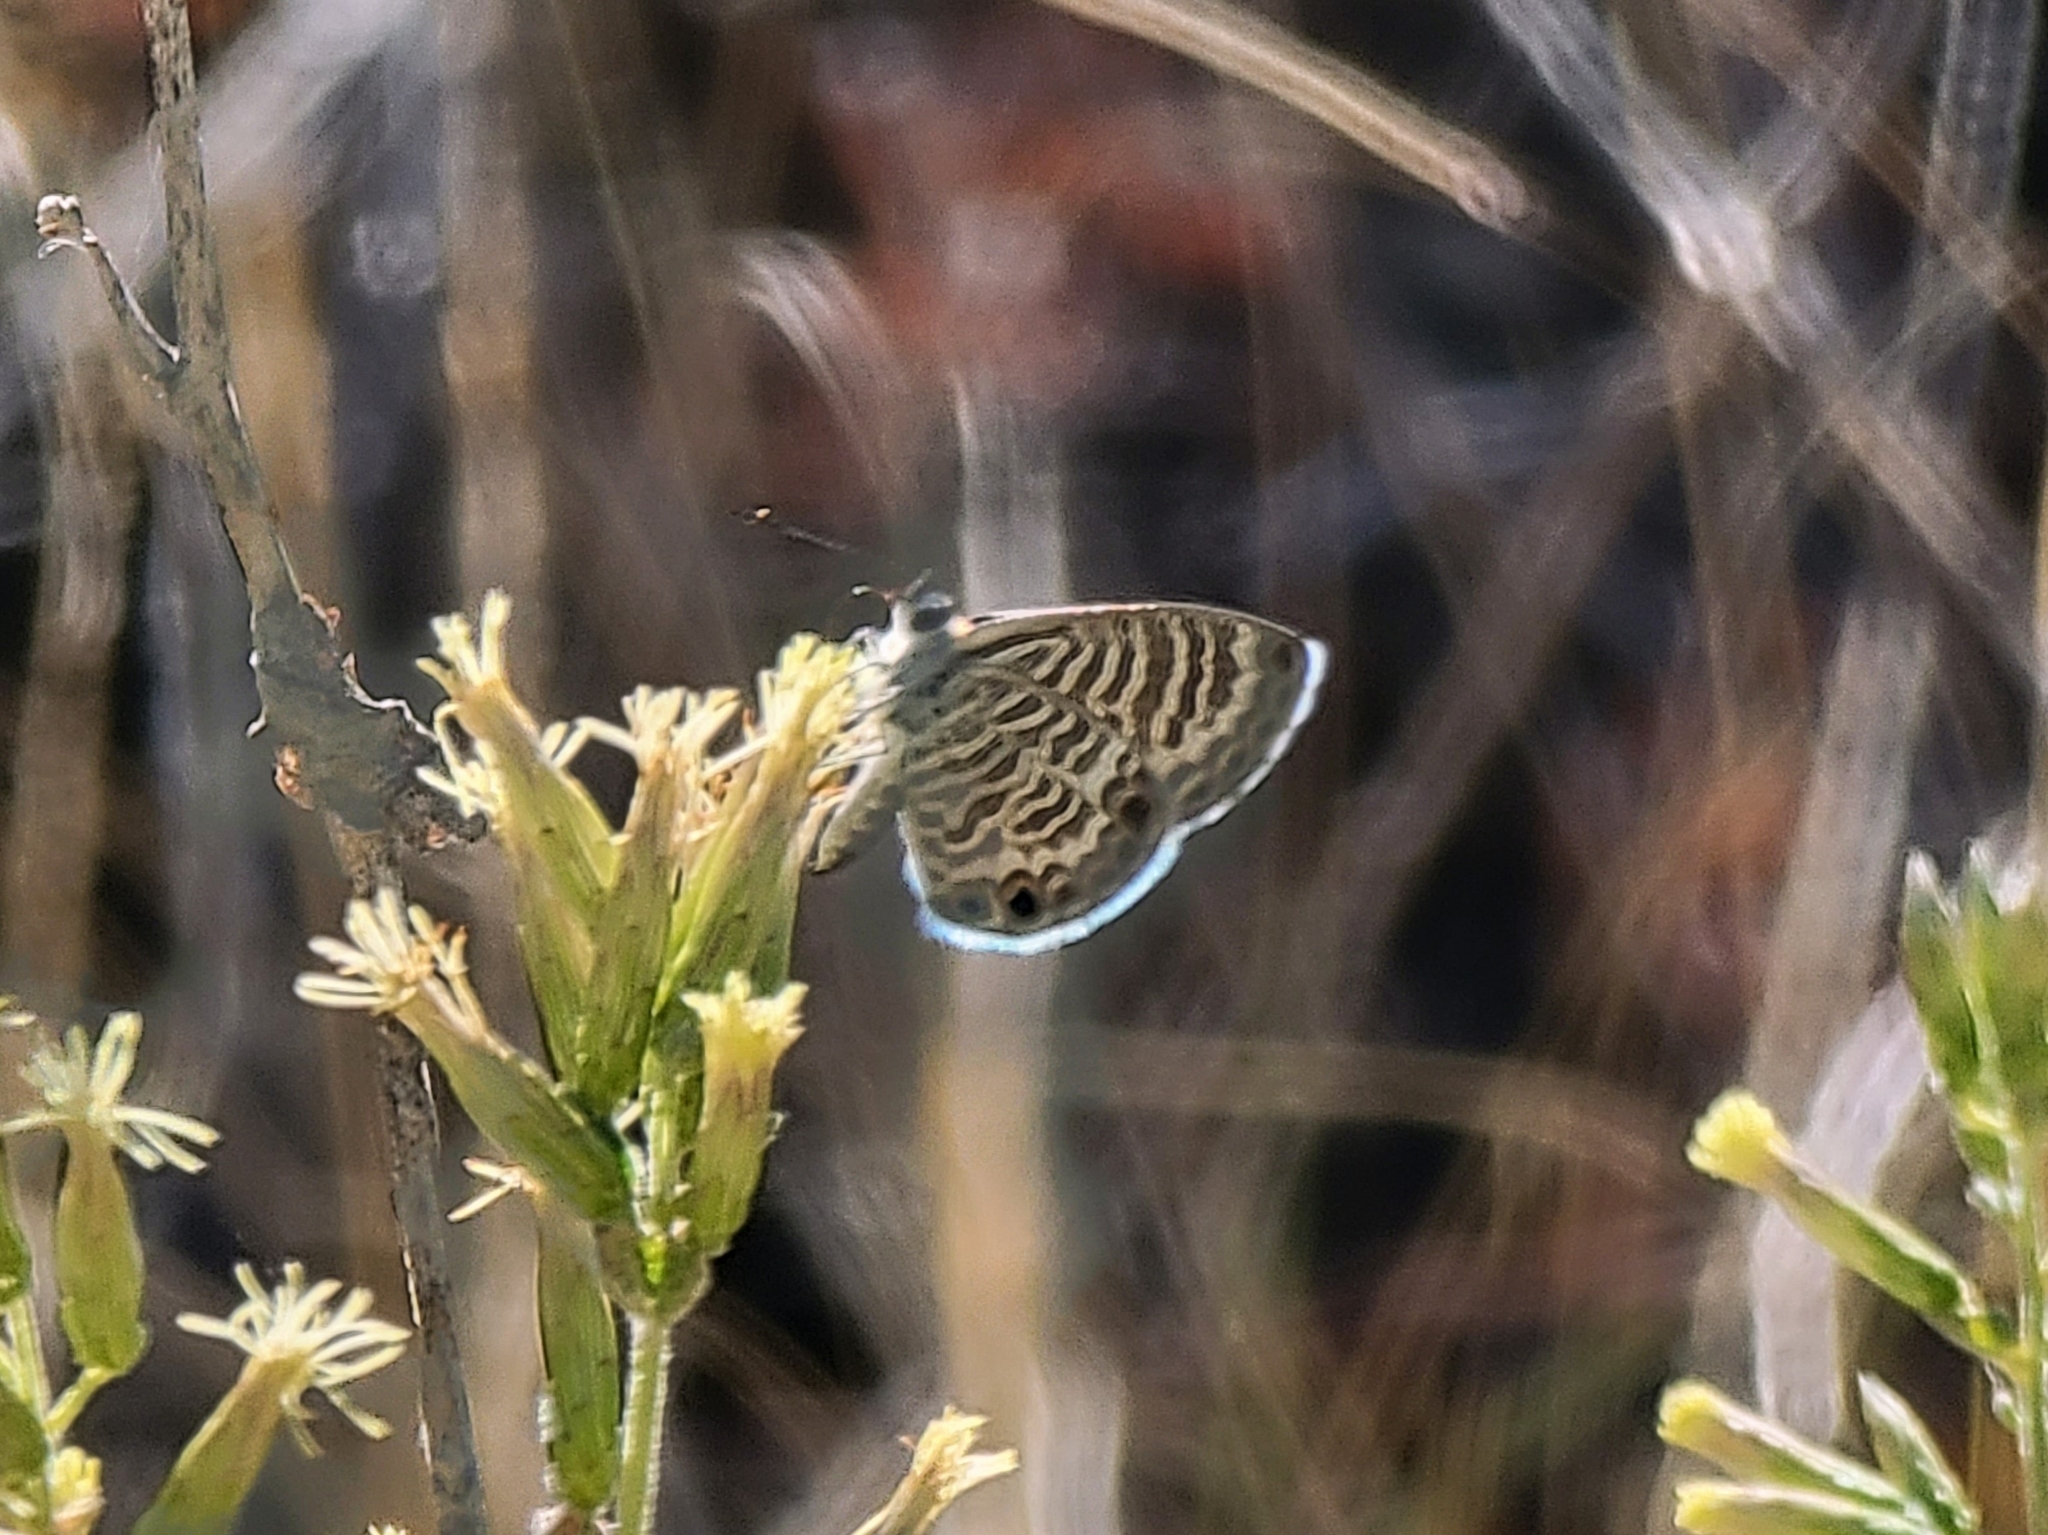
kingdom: Animalia
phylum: Arthropoda
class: Insecta
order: Lepidoptera
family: Lycaenidae
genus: Leptotes
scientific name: Leptotes marina
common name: Marine blue
